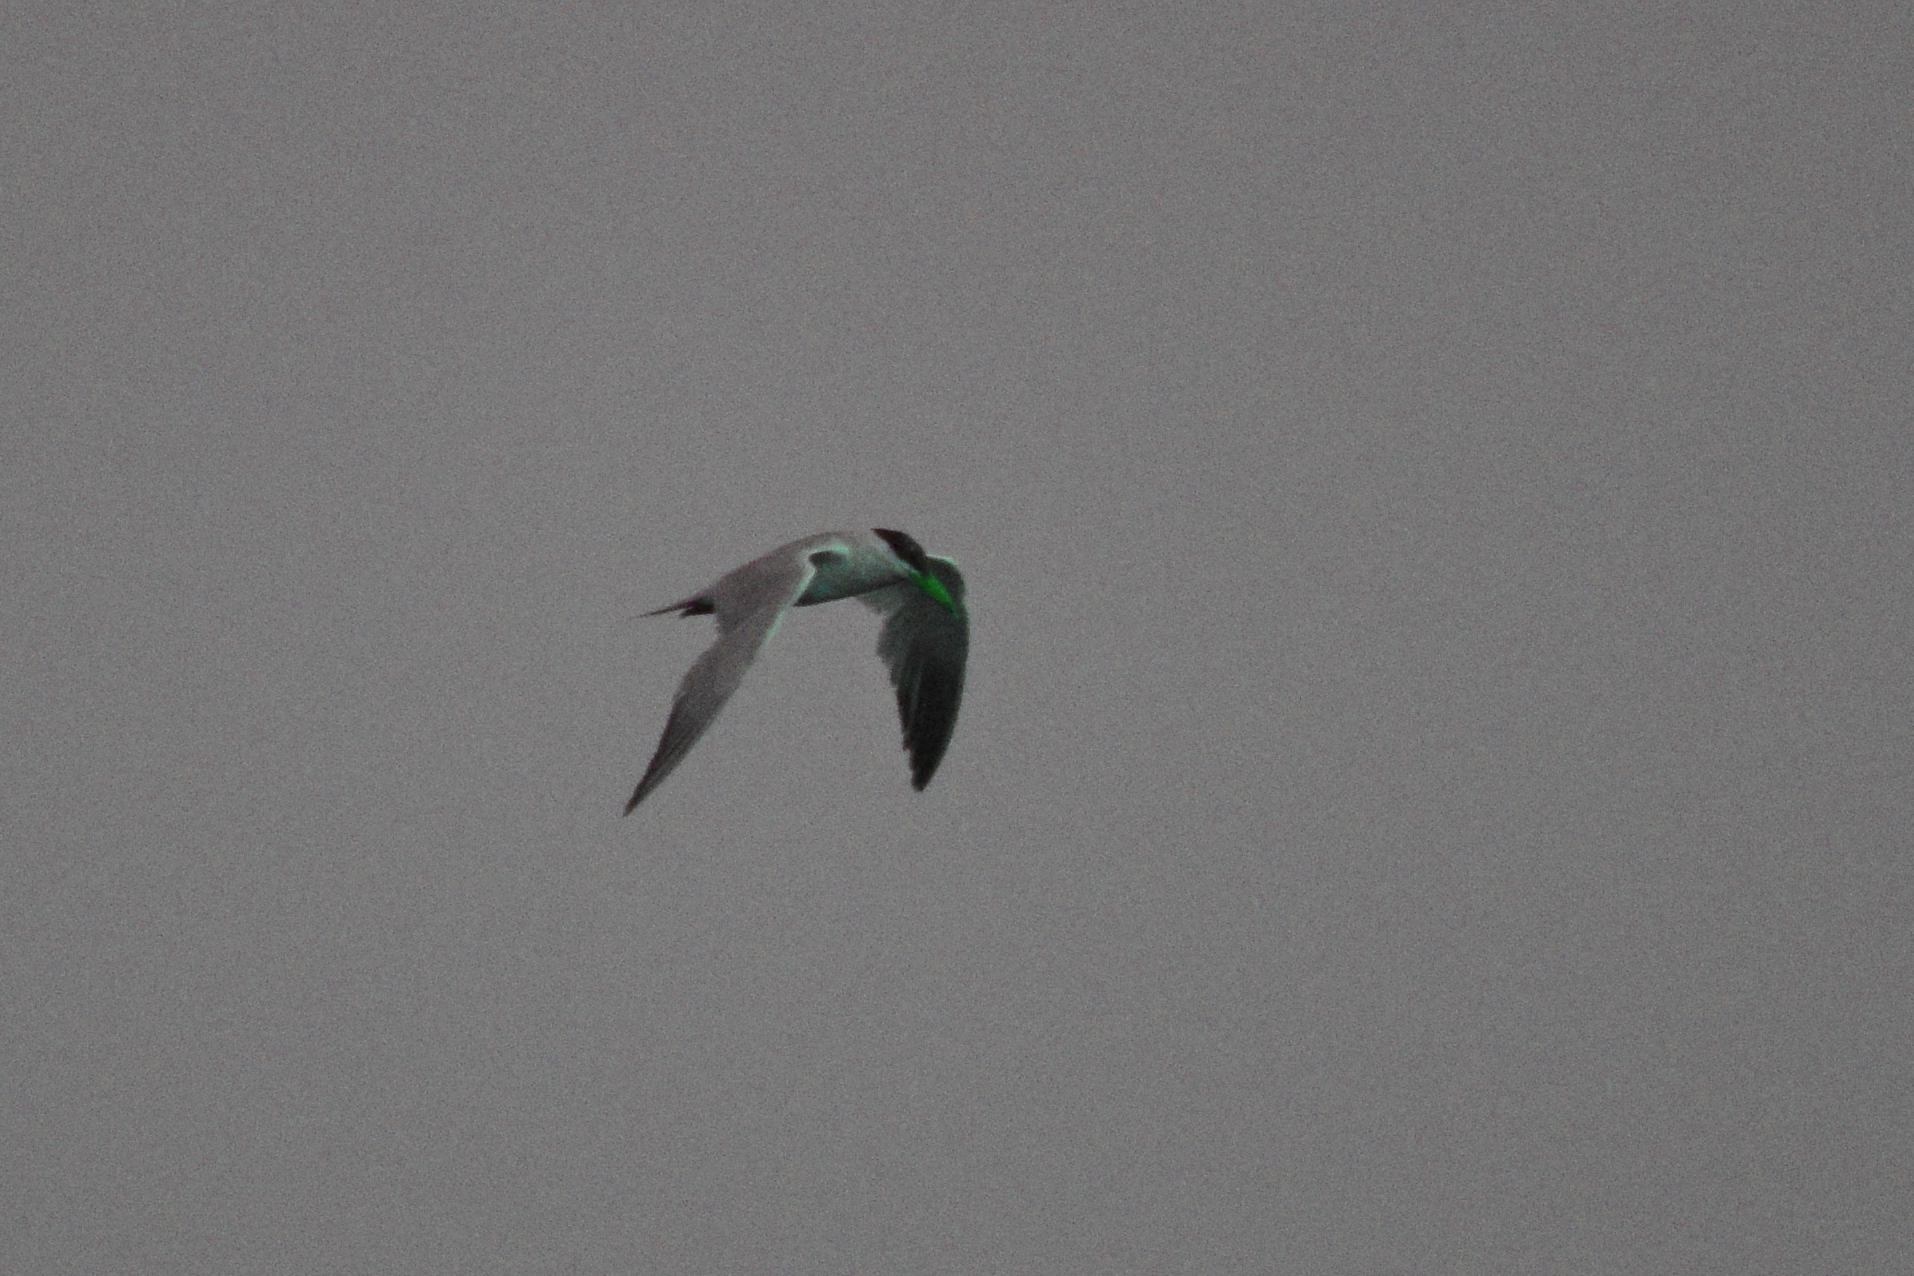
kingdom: Animalia
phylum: Chordata
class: Aves
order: Charadriiformes
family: Laridae
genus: Hydroprogne
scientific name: Hydroprogne caspia
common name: Caspian tern
